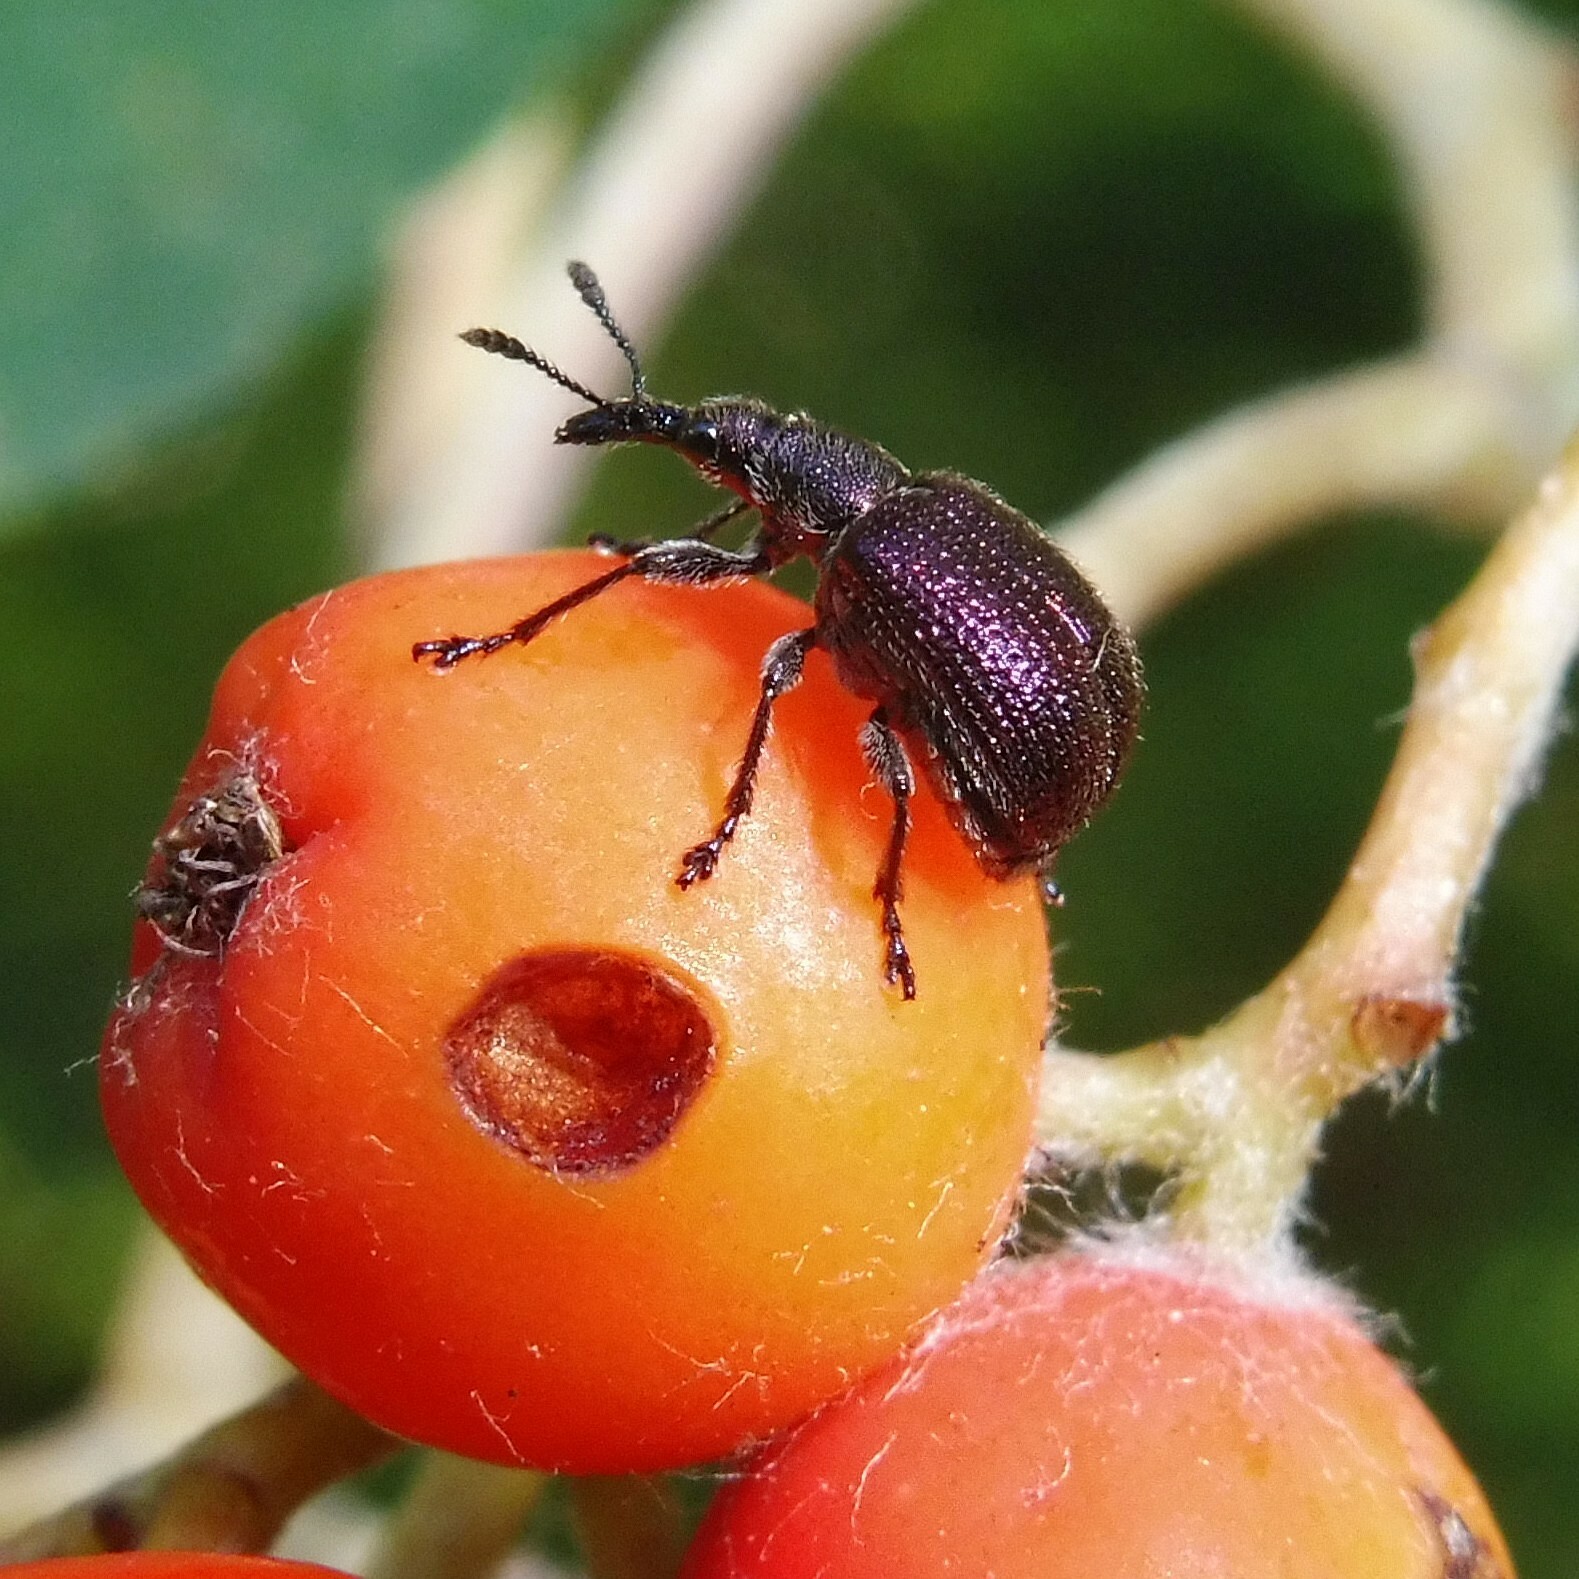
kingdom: Animalia
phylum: Arthropoda
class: Insecta
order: Coleoptera
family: Attelabidae
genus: Involvulus
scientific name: Involvulus cupreus
